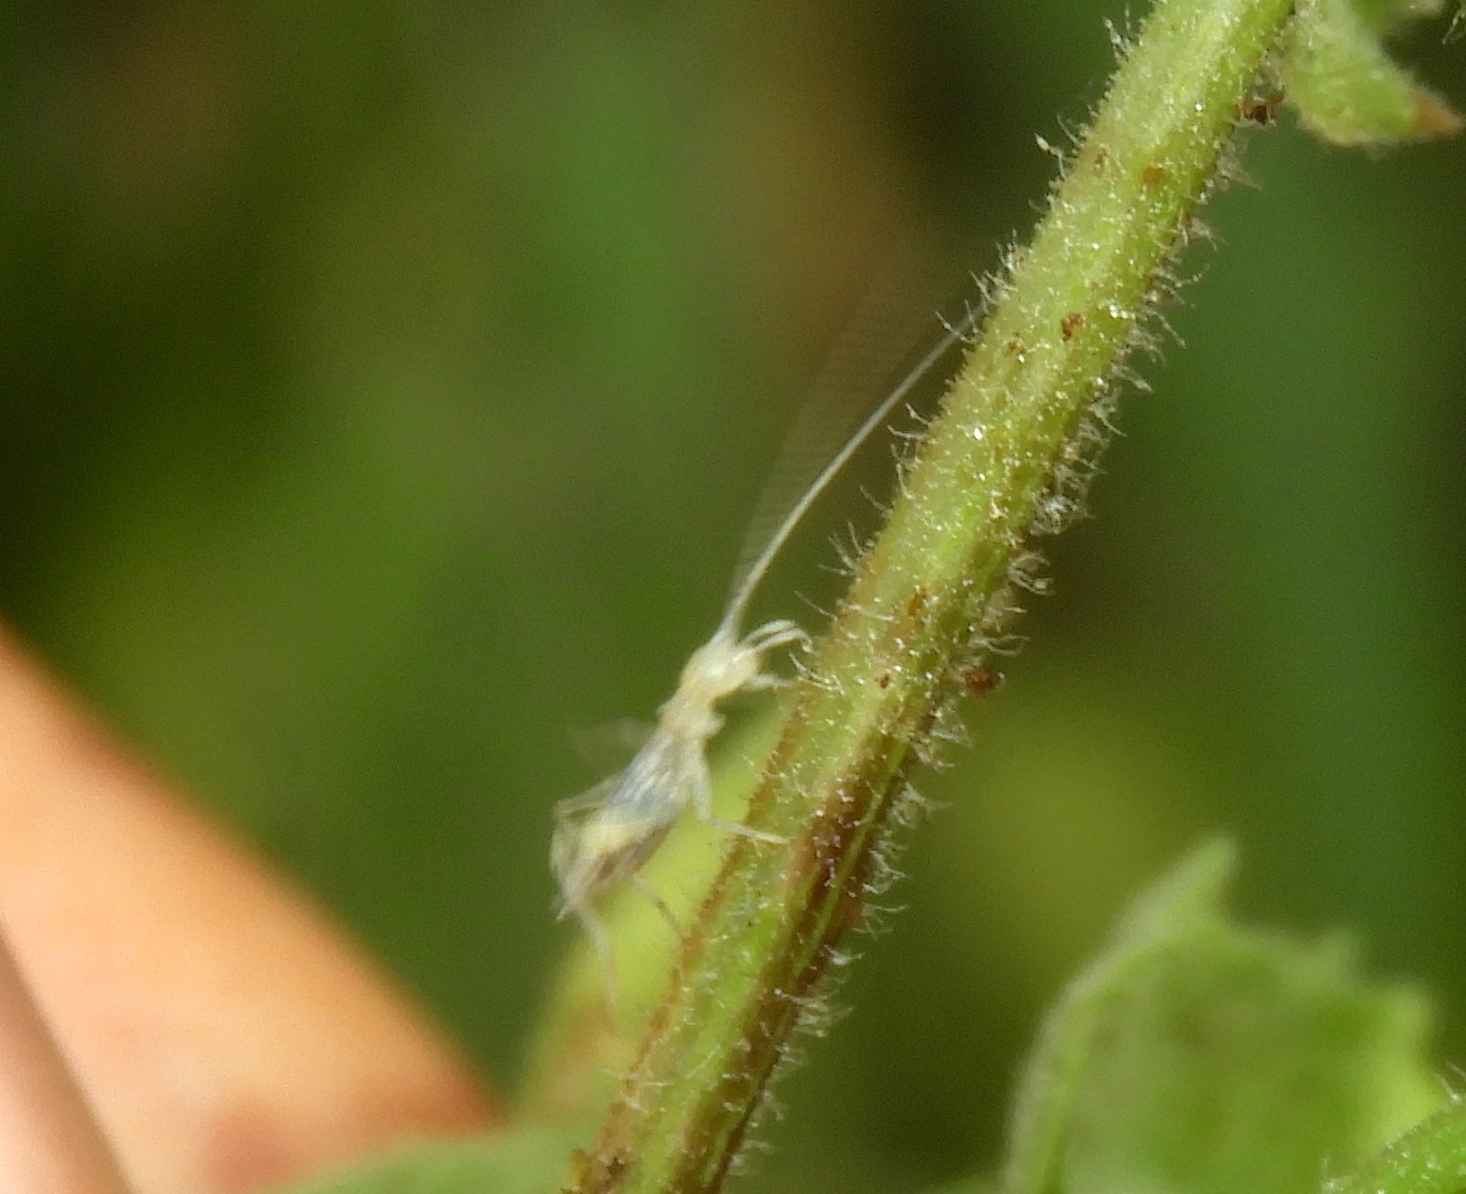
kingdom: Animalia
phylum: Arthropoda
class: Insecta
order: Orthoptera
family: Gryllidae
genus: Oecanthus
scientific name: Oecanthus
